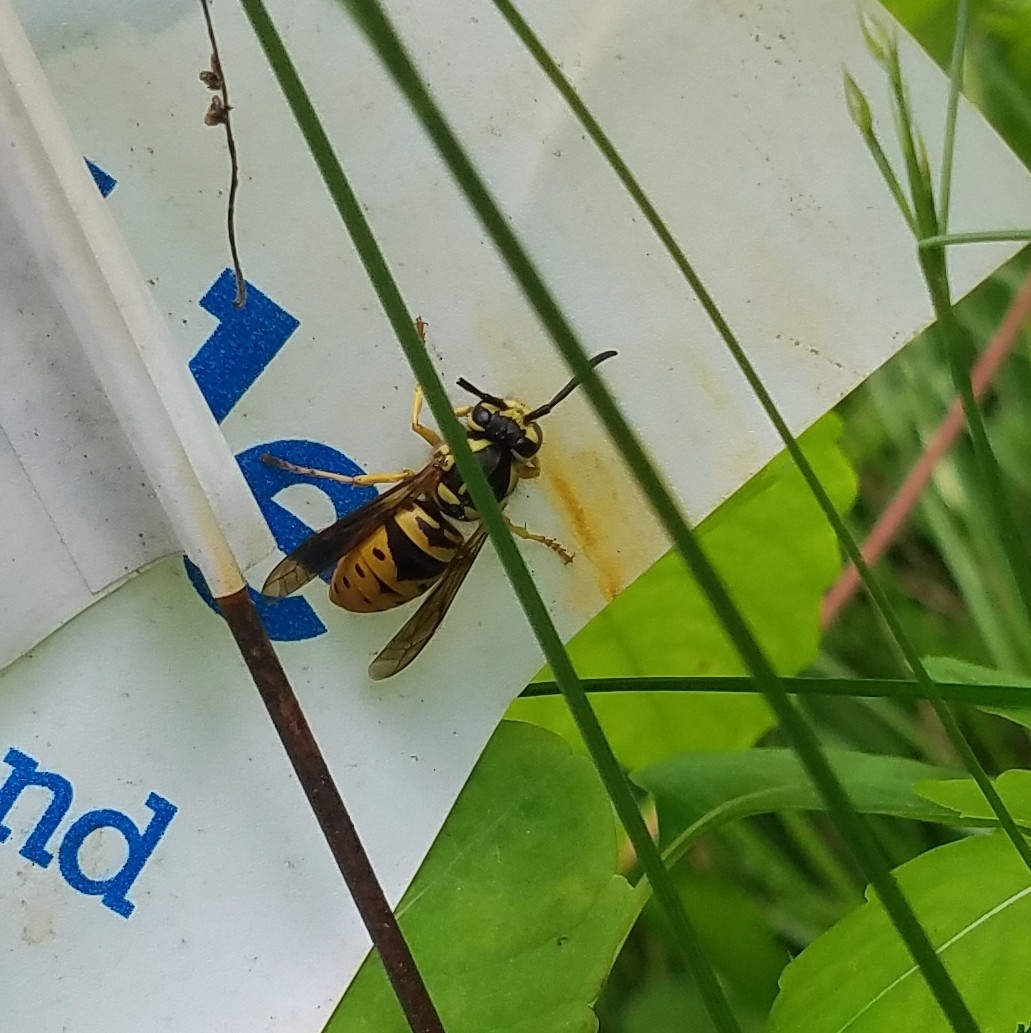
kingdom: Animalia
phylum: Arthropoda
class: Insecta
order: Hymenoptera
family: Vespidae
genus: Vespula
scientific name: Vespula maculifrons
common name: Eastern yellowjacket
